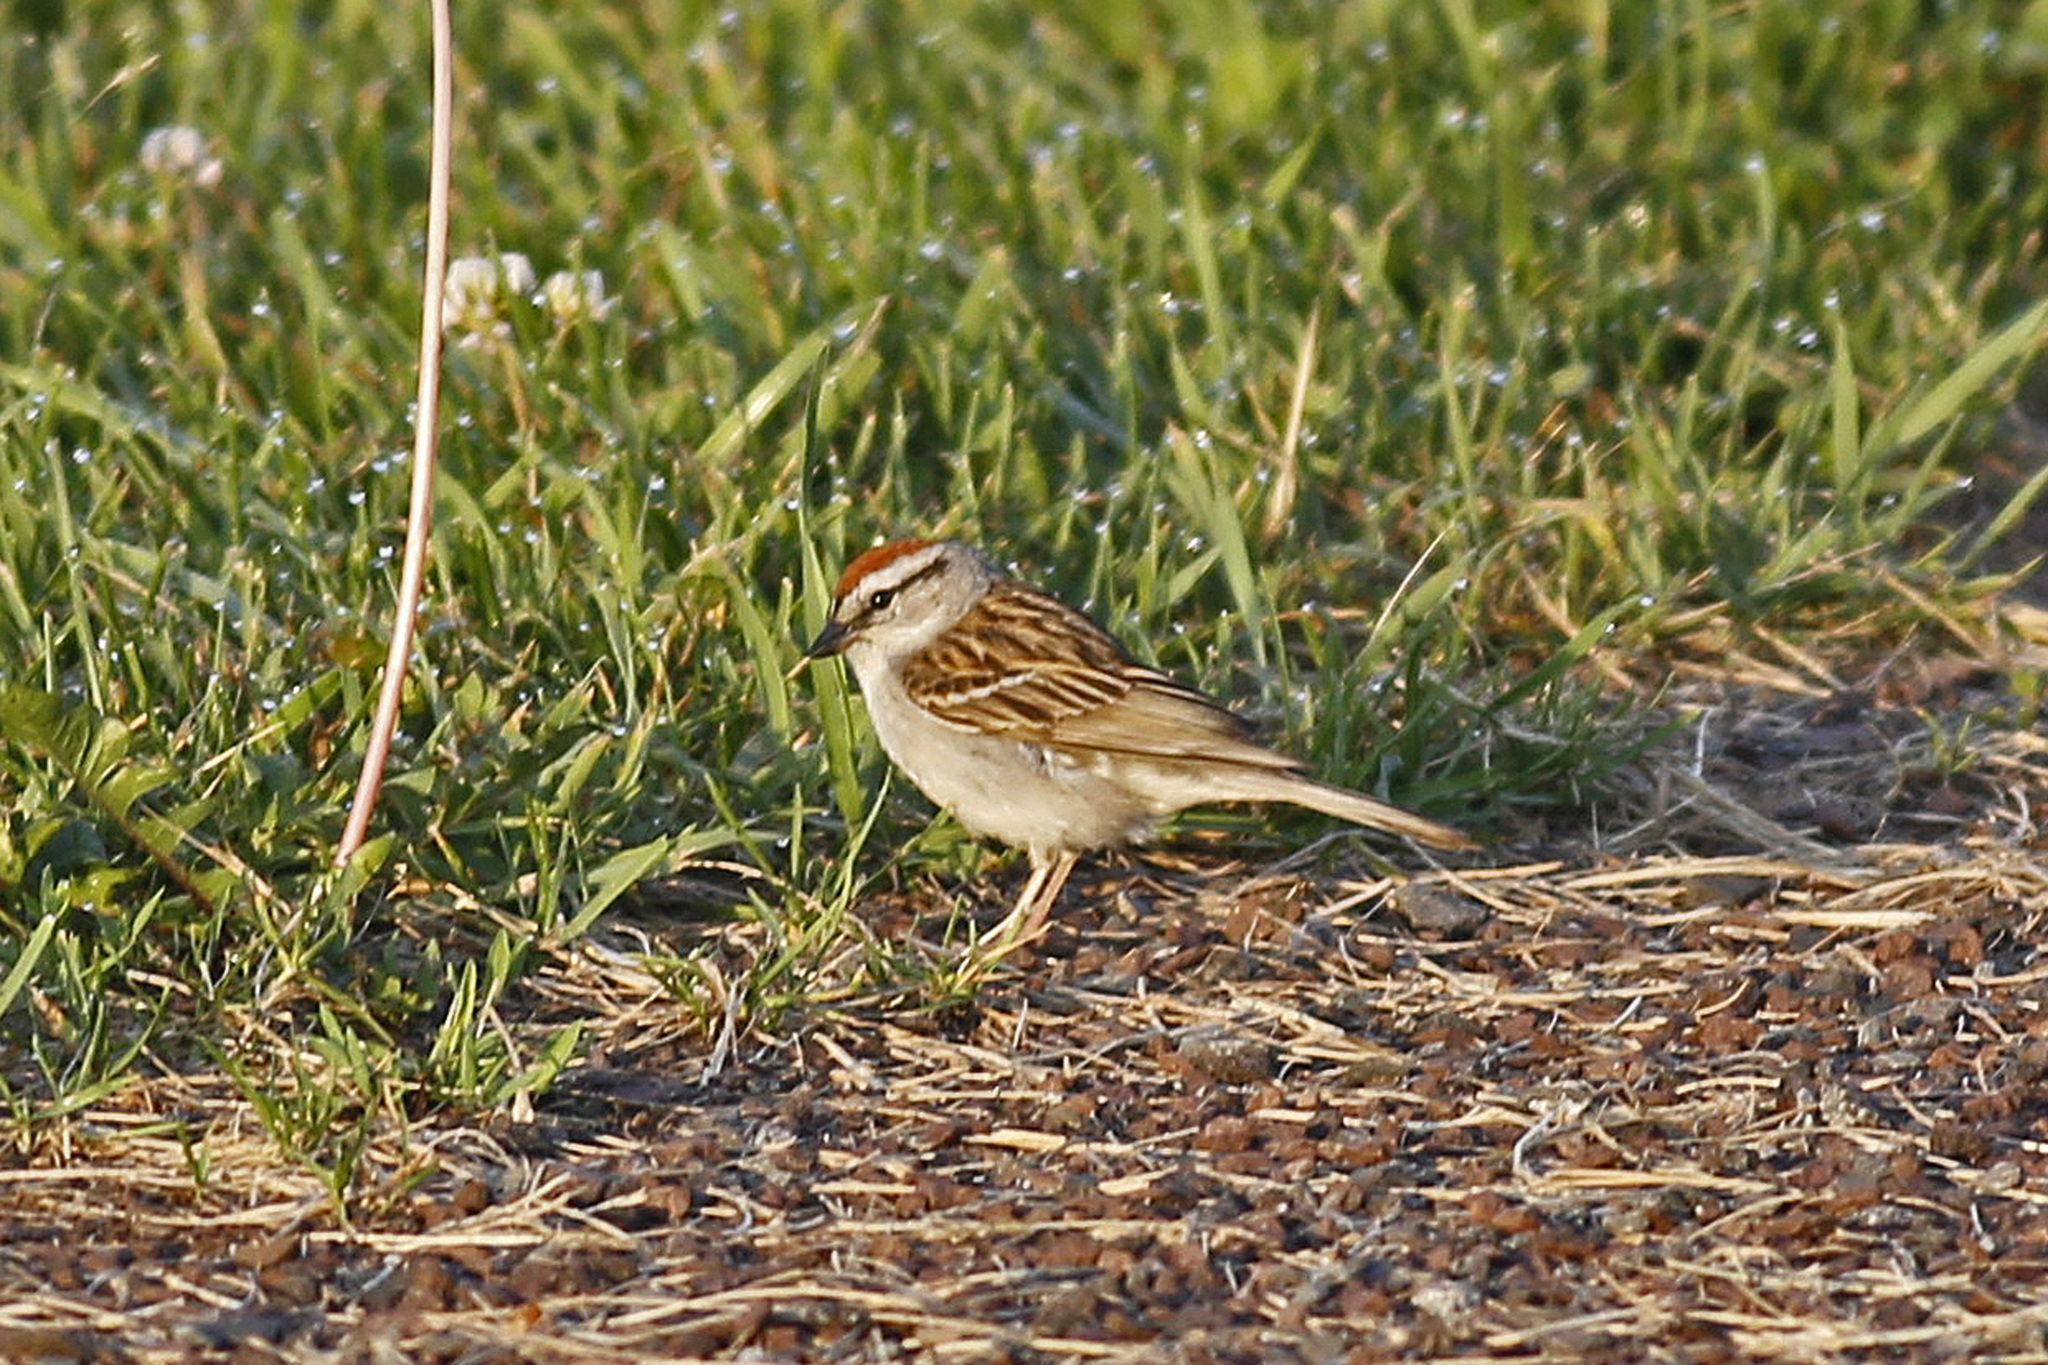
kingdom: Animalia
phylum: Chordata
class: Aves
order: Passeriformes
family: Passerellidae
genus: Spizella
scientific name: Spizella passerina
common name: Chipping sparrow
